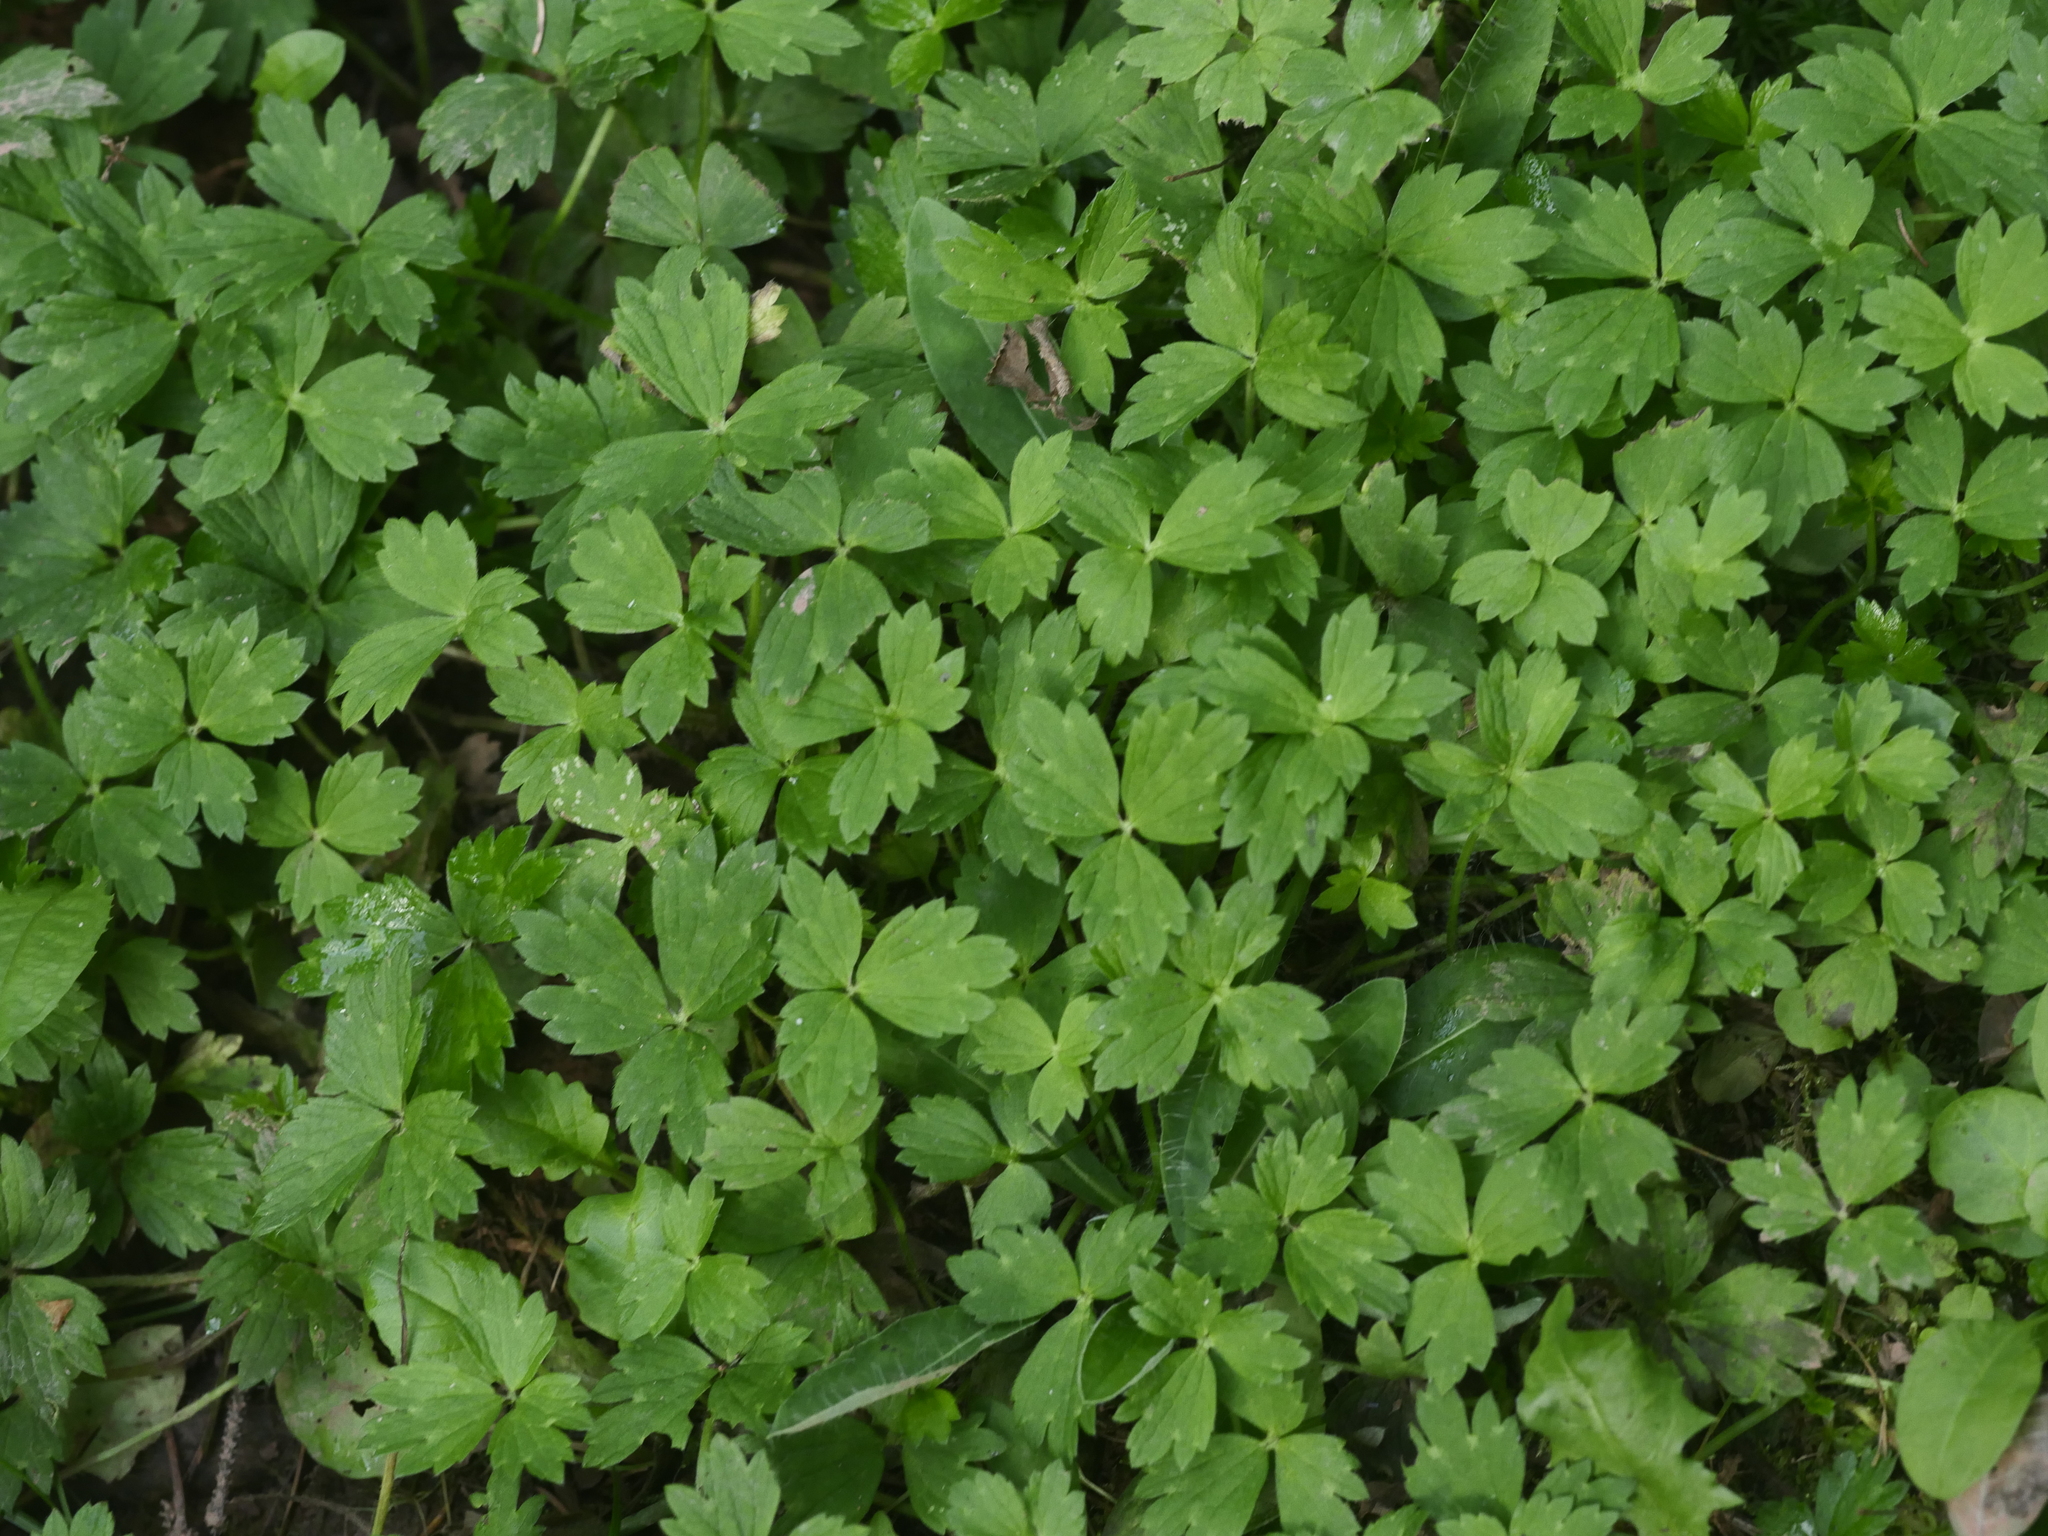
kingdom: Plantae
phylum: Tracheophyta
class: Magnoliopsida
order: Ranunculales
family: Ranunculaceae
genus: Ranunculus
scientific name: Ranunculus repens
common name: Creeping buttercup
